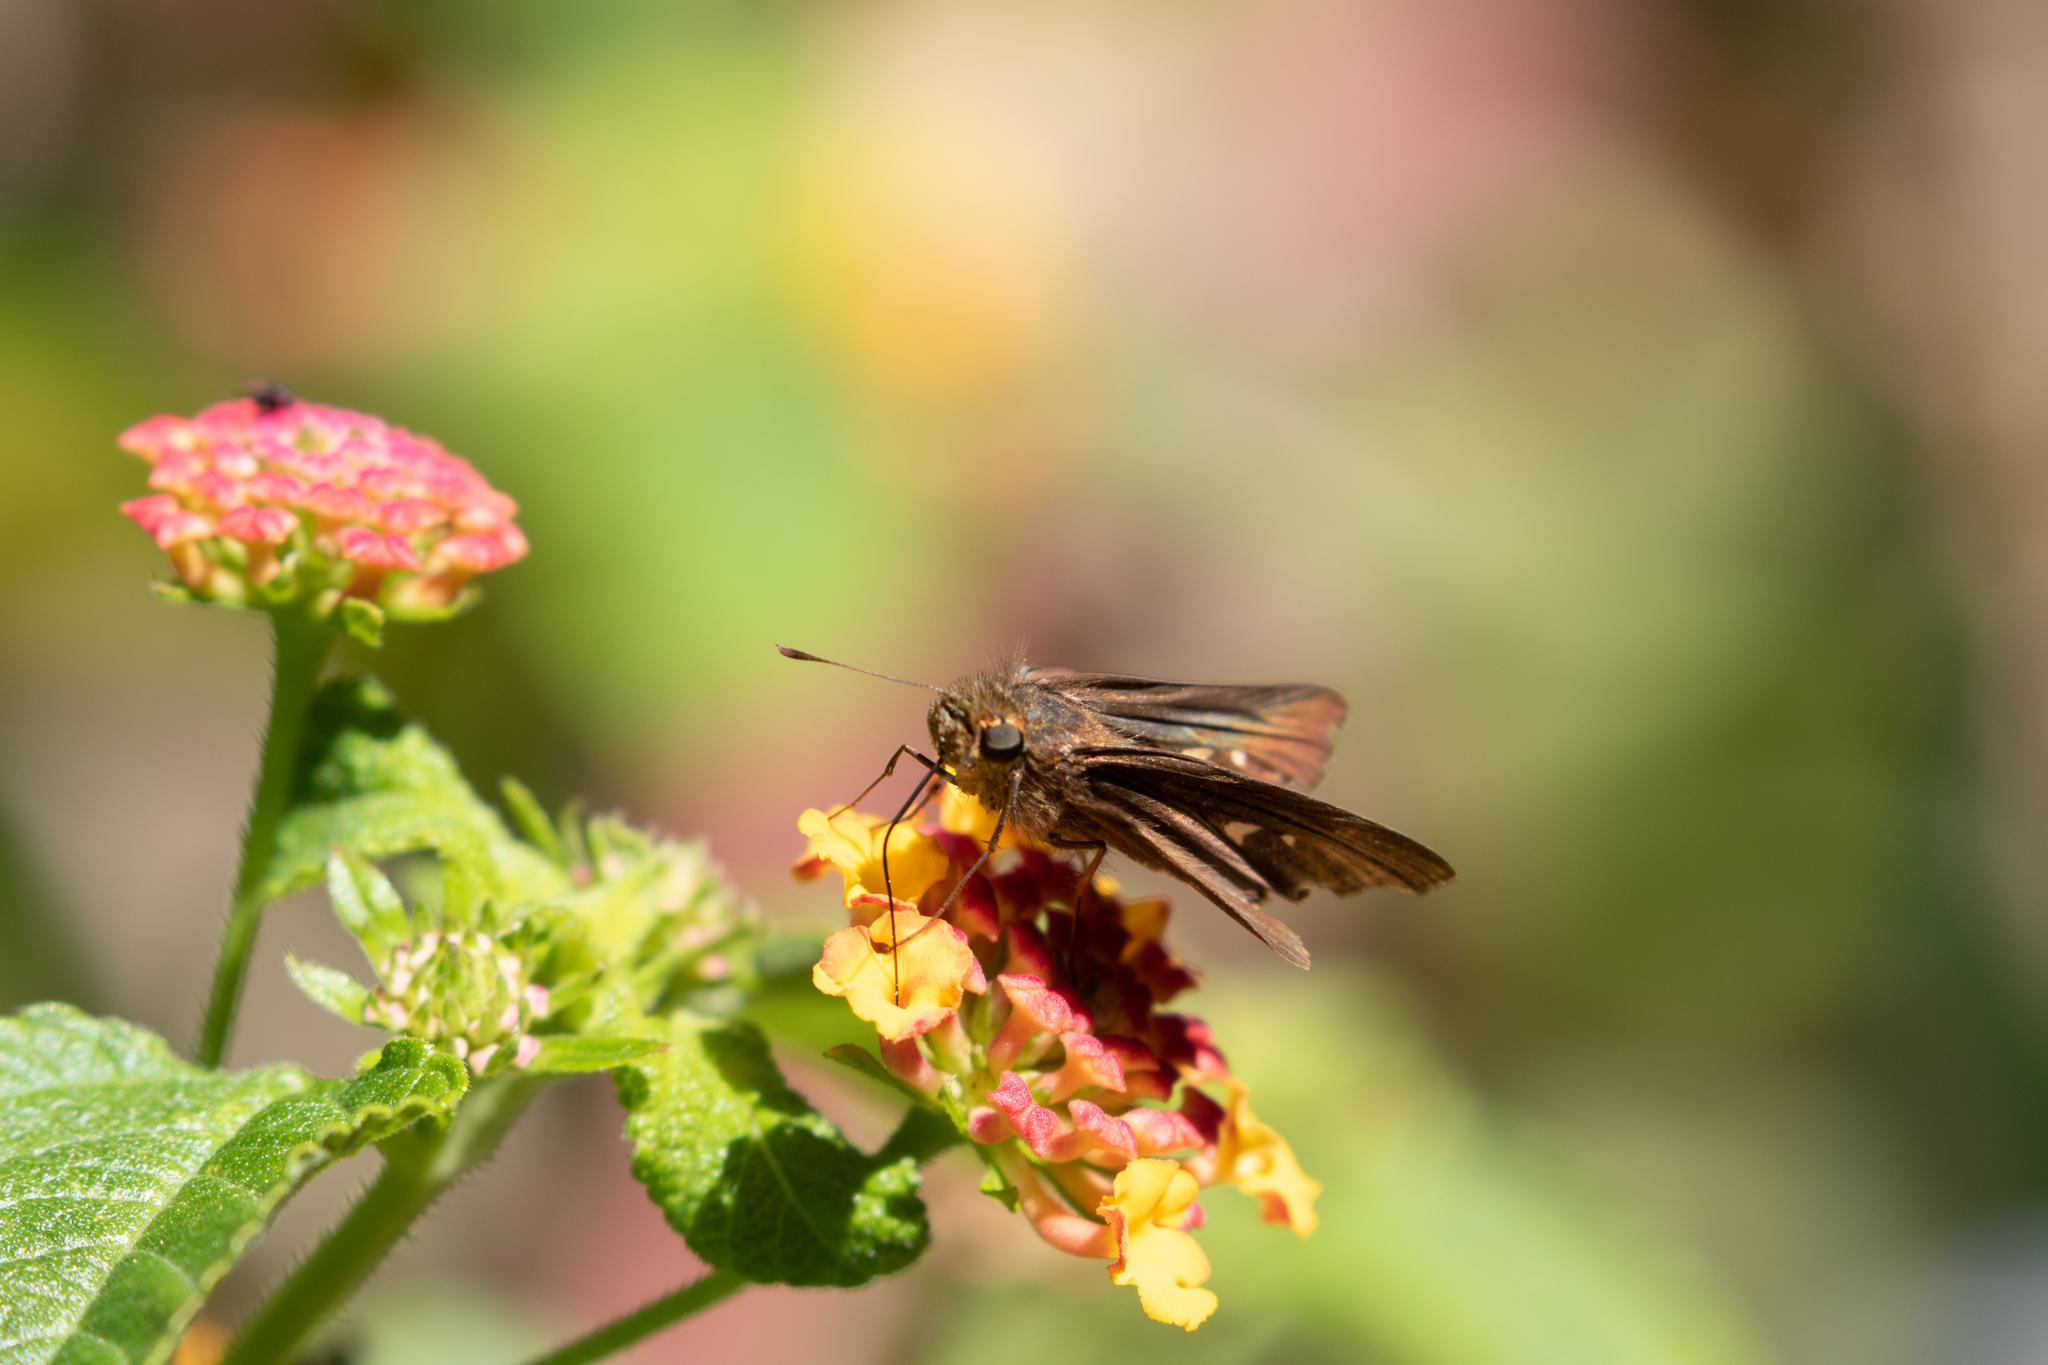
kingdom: Animalia
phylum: Arthropoda
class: Insecta
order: Lepidoptera
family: Hesperiidae
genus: Panoquina
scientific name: Panoquina ocola
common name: Ocola skipper
